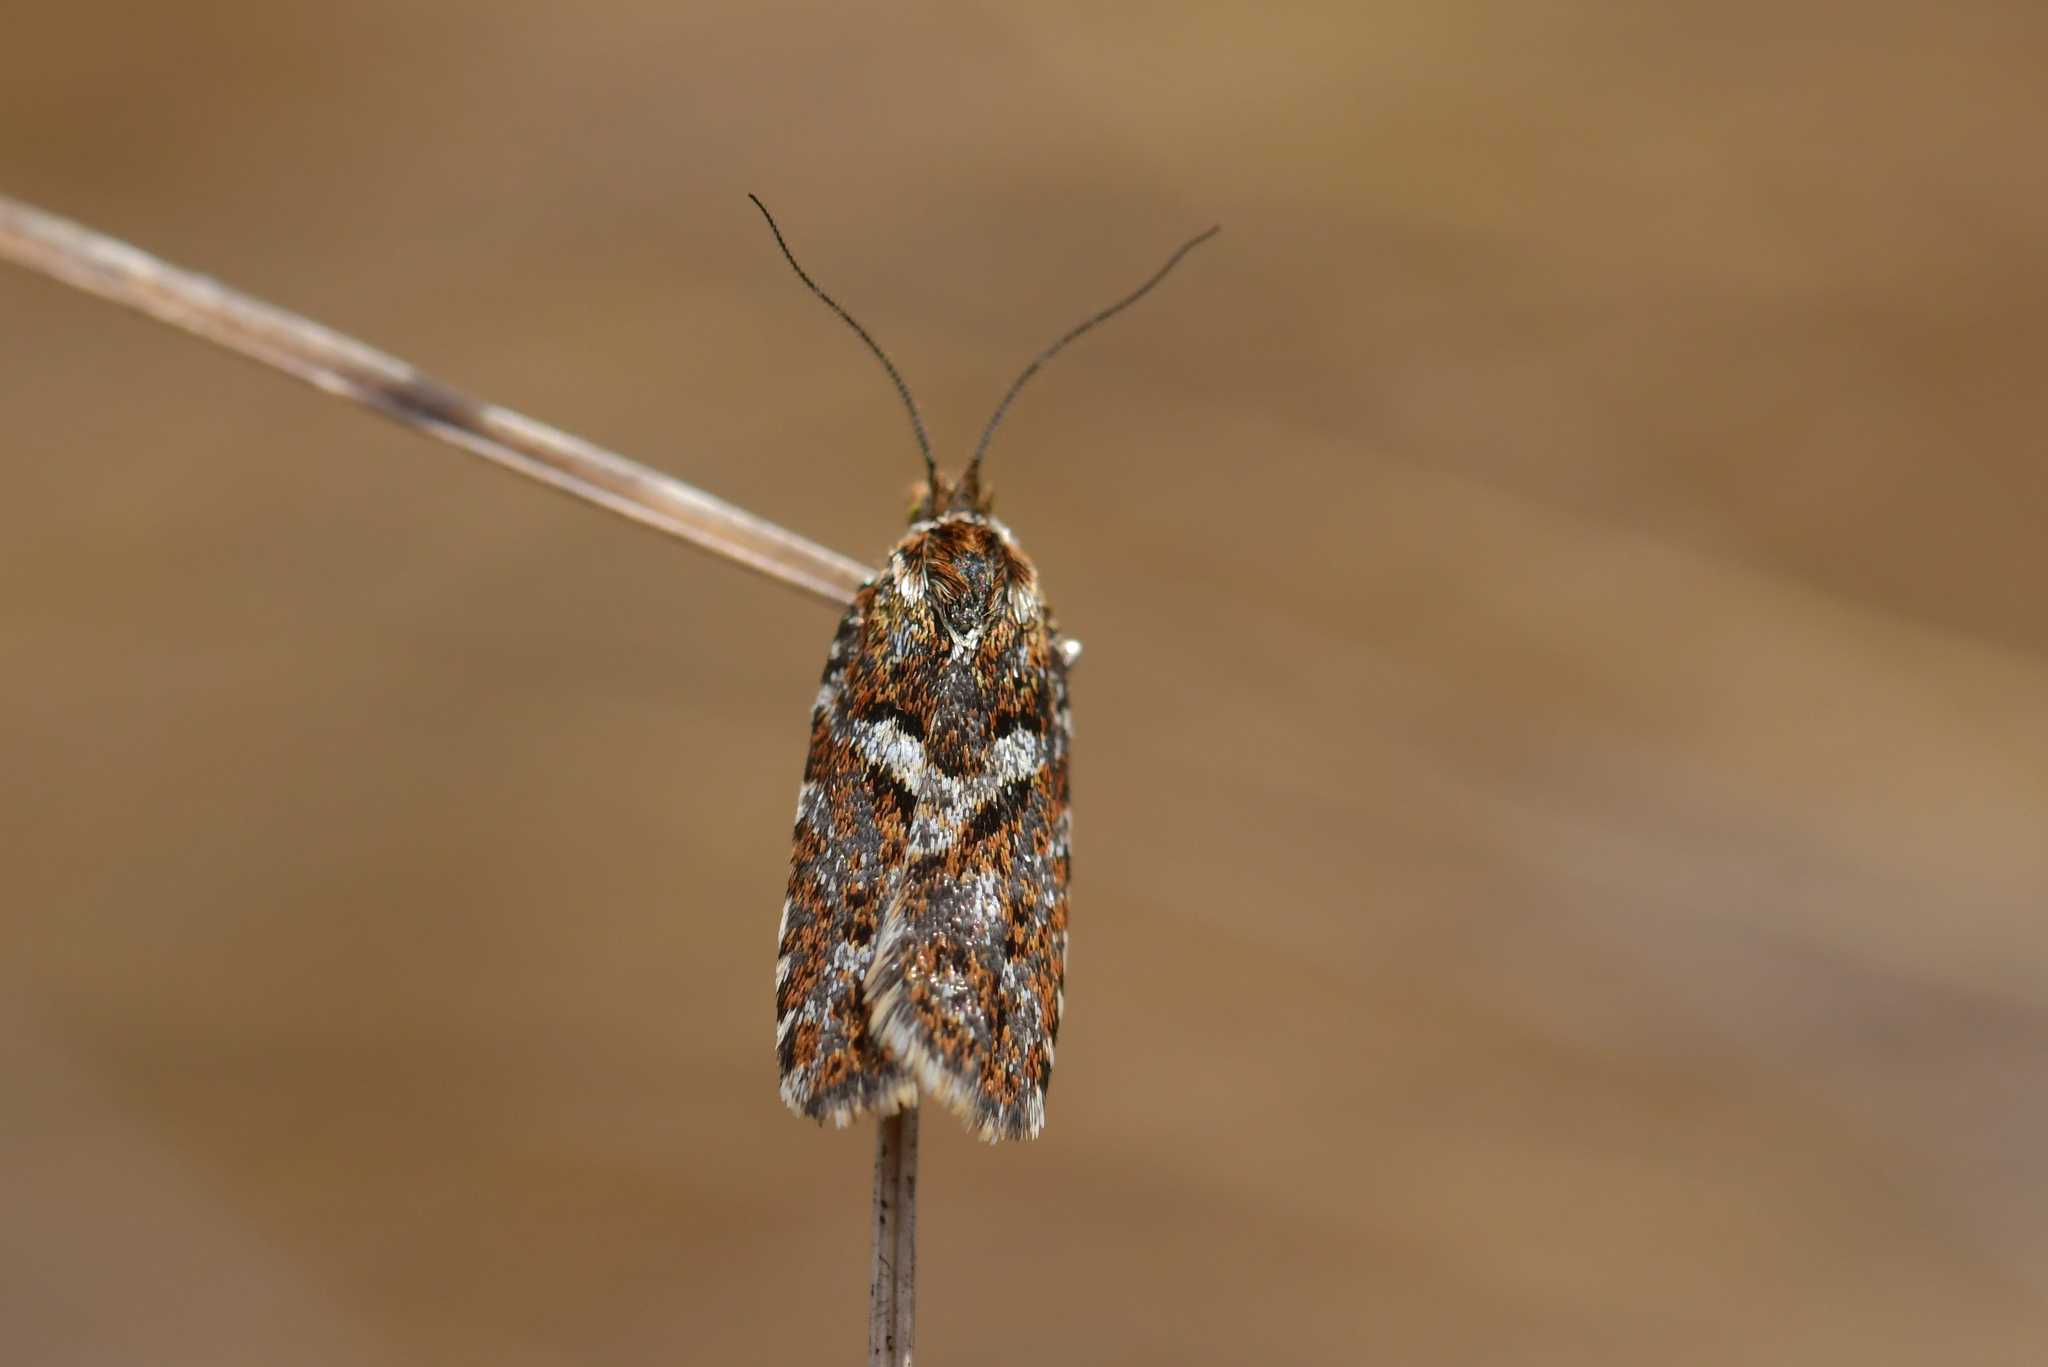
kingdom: Animalia
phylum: Arthropoda
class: Insecta
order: Lepidoptera
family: Tortricidae
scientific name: Tortricidae
